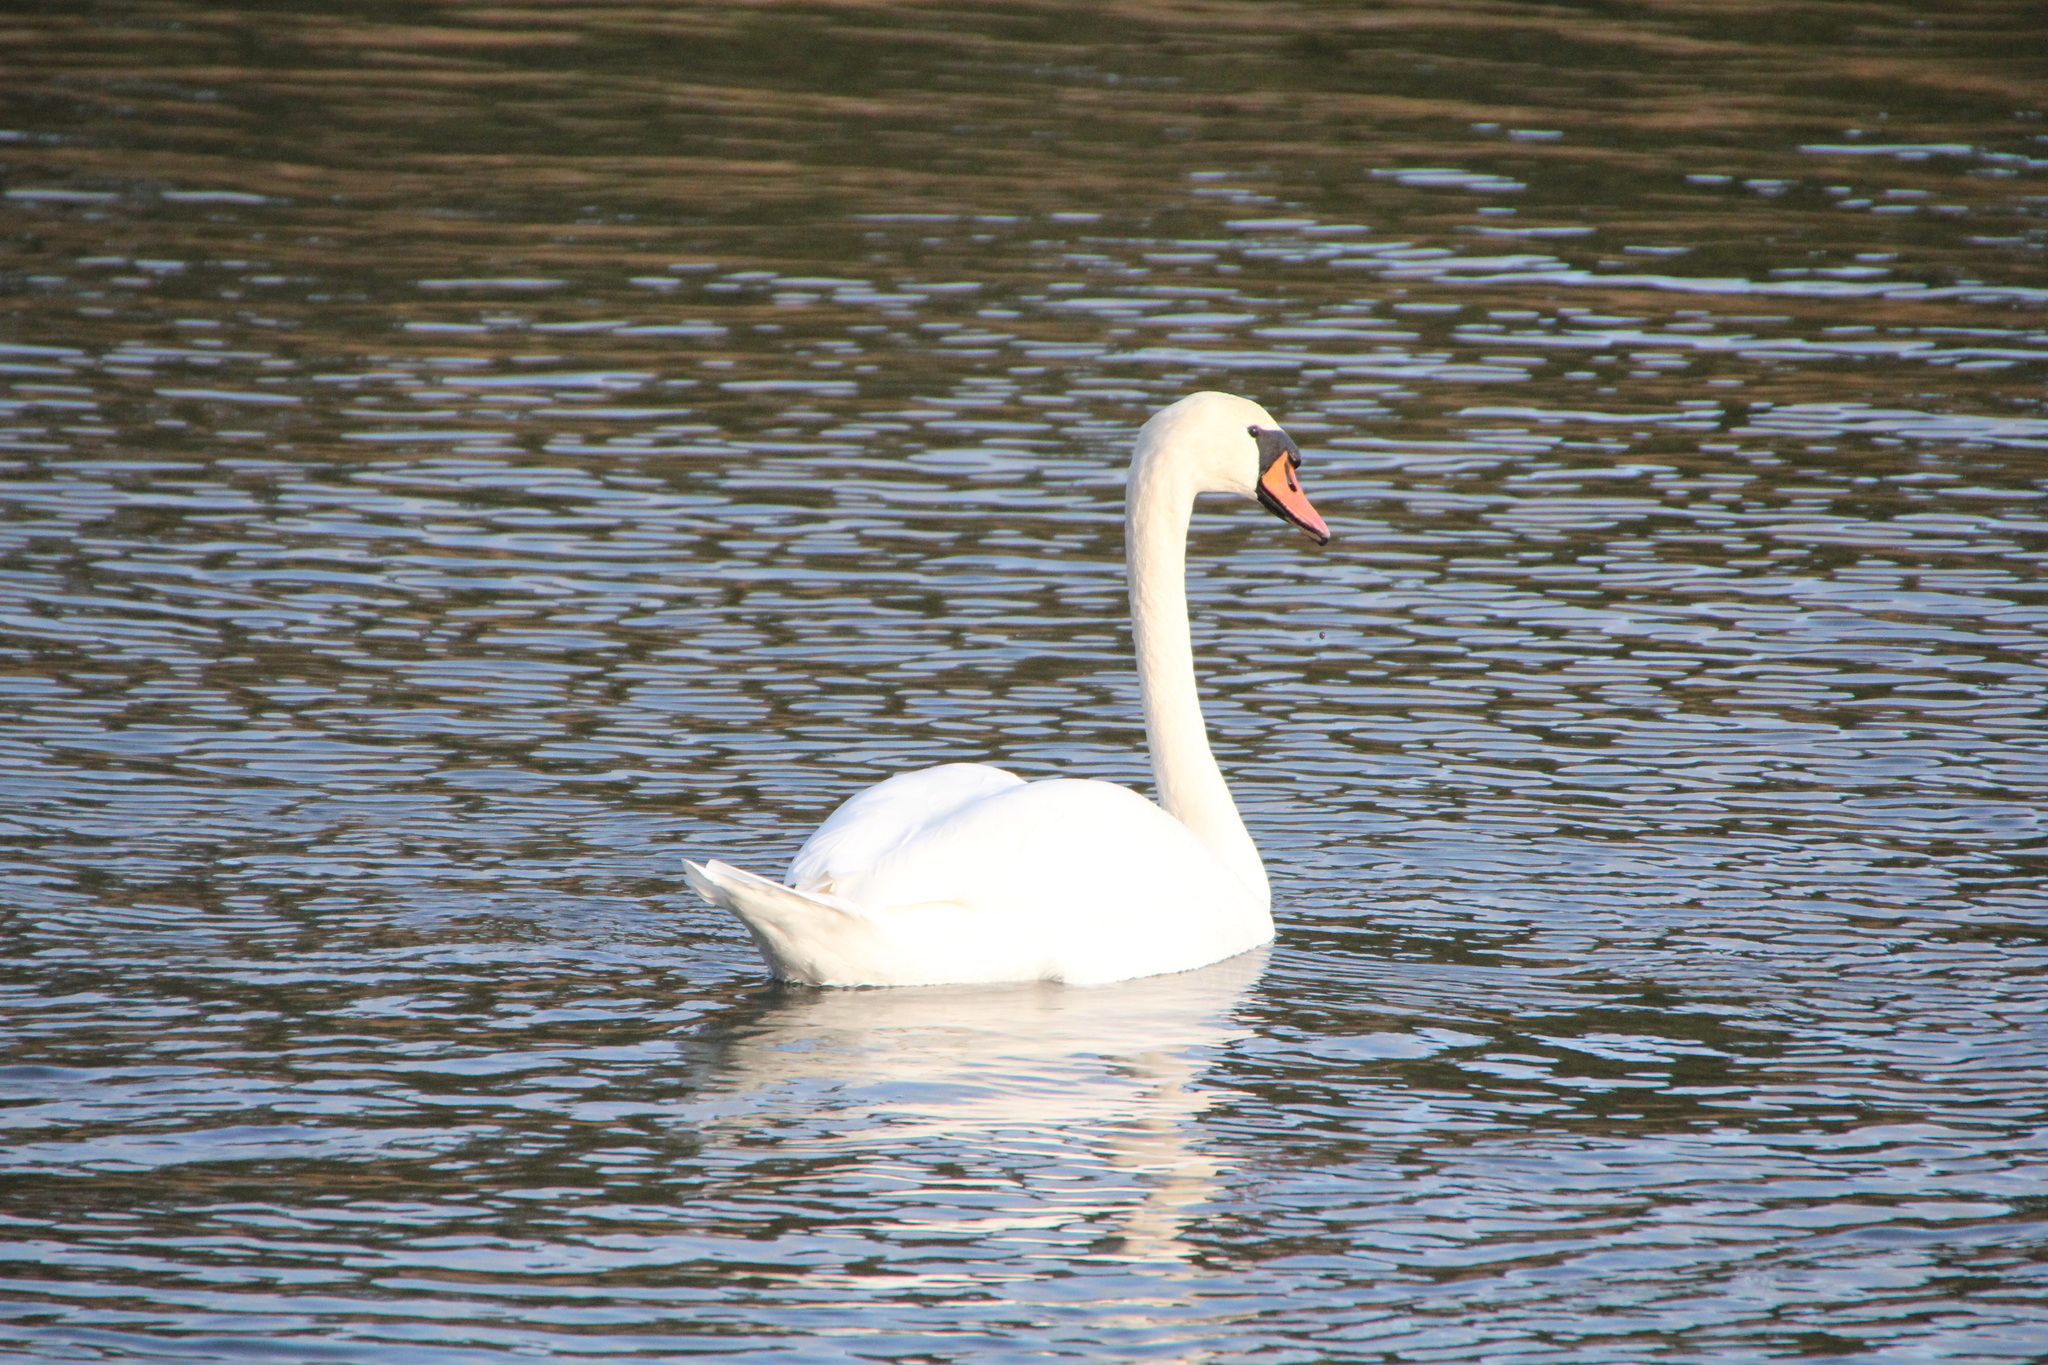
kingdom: Animalia
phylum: Chordata
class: Aves
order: Anseriformes
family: Anatidae
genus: Cygnus
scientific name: Cygnus olor
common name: Mute swan
